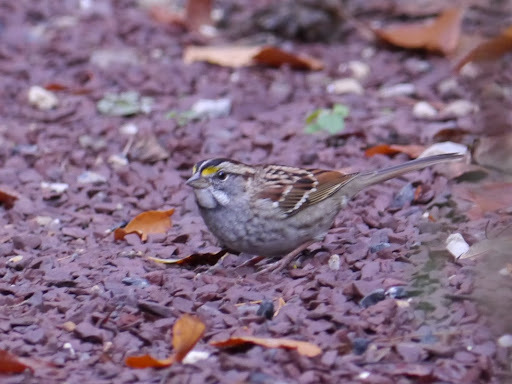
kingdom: Animalia
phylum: Chordata
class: Aves
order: Passeriformes
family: Passerellidae
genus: Zonotrichia
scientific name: Zonotrichia albicollis
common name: White-throated sparrow
